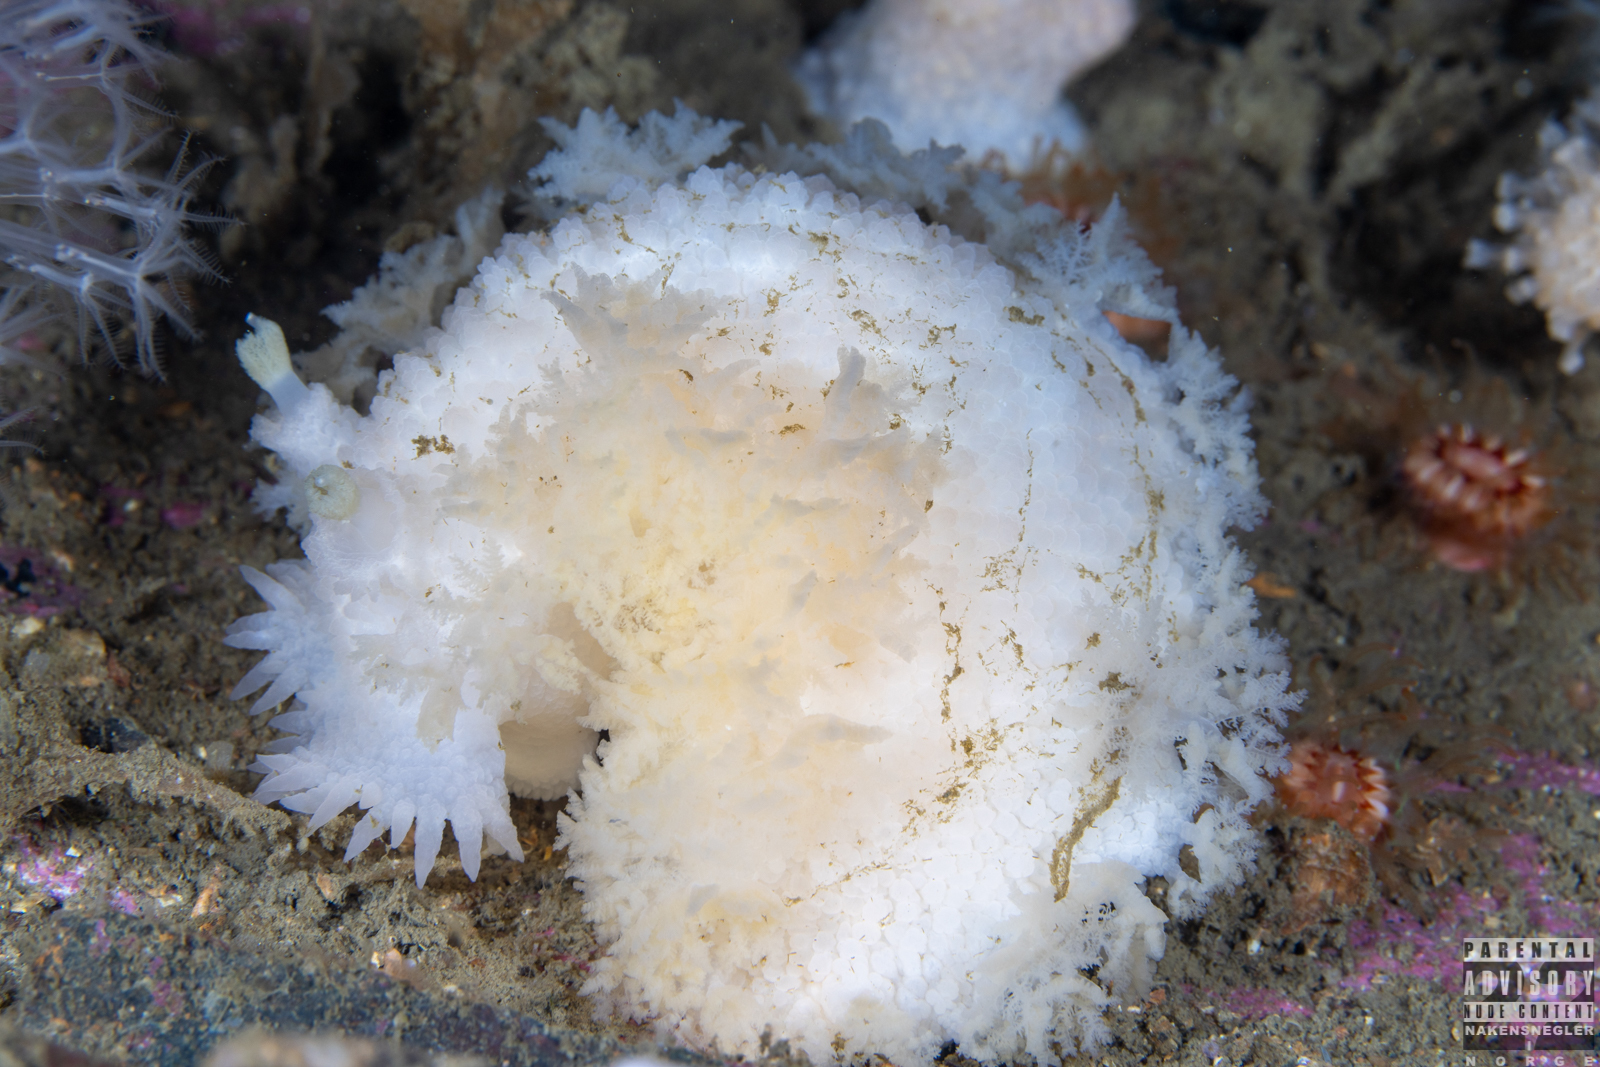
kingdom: Animalia
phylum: Mollusca
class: Gastropoda
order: Nudibranchia
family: Tritoniidae
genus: Tritonia
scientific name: Tritonia hombergii
